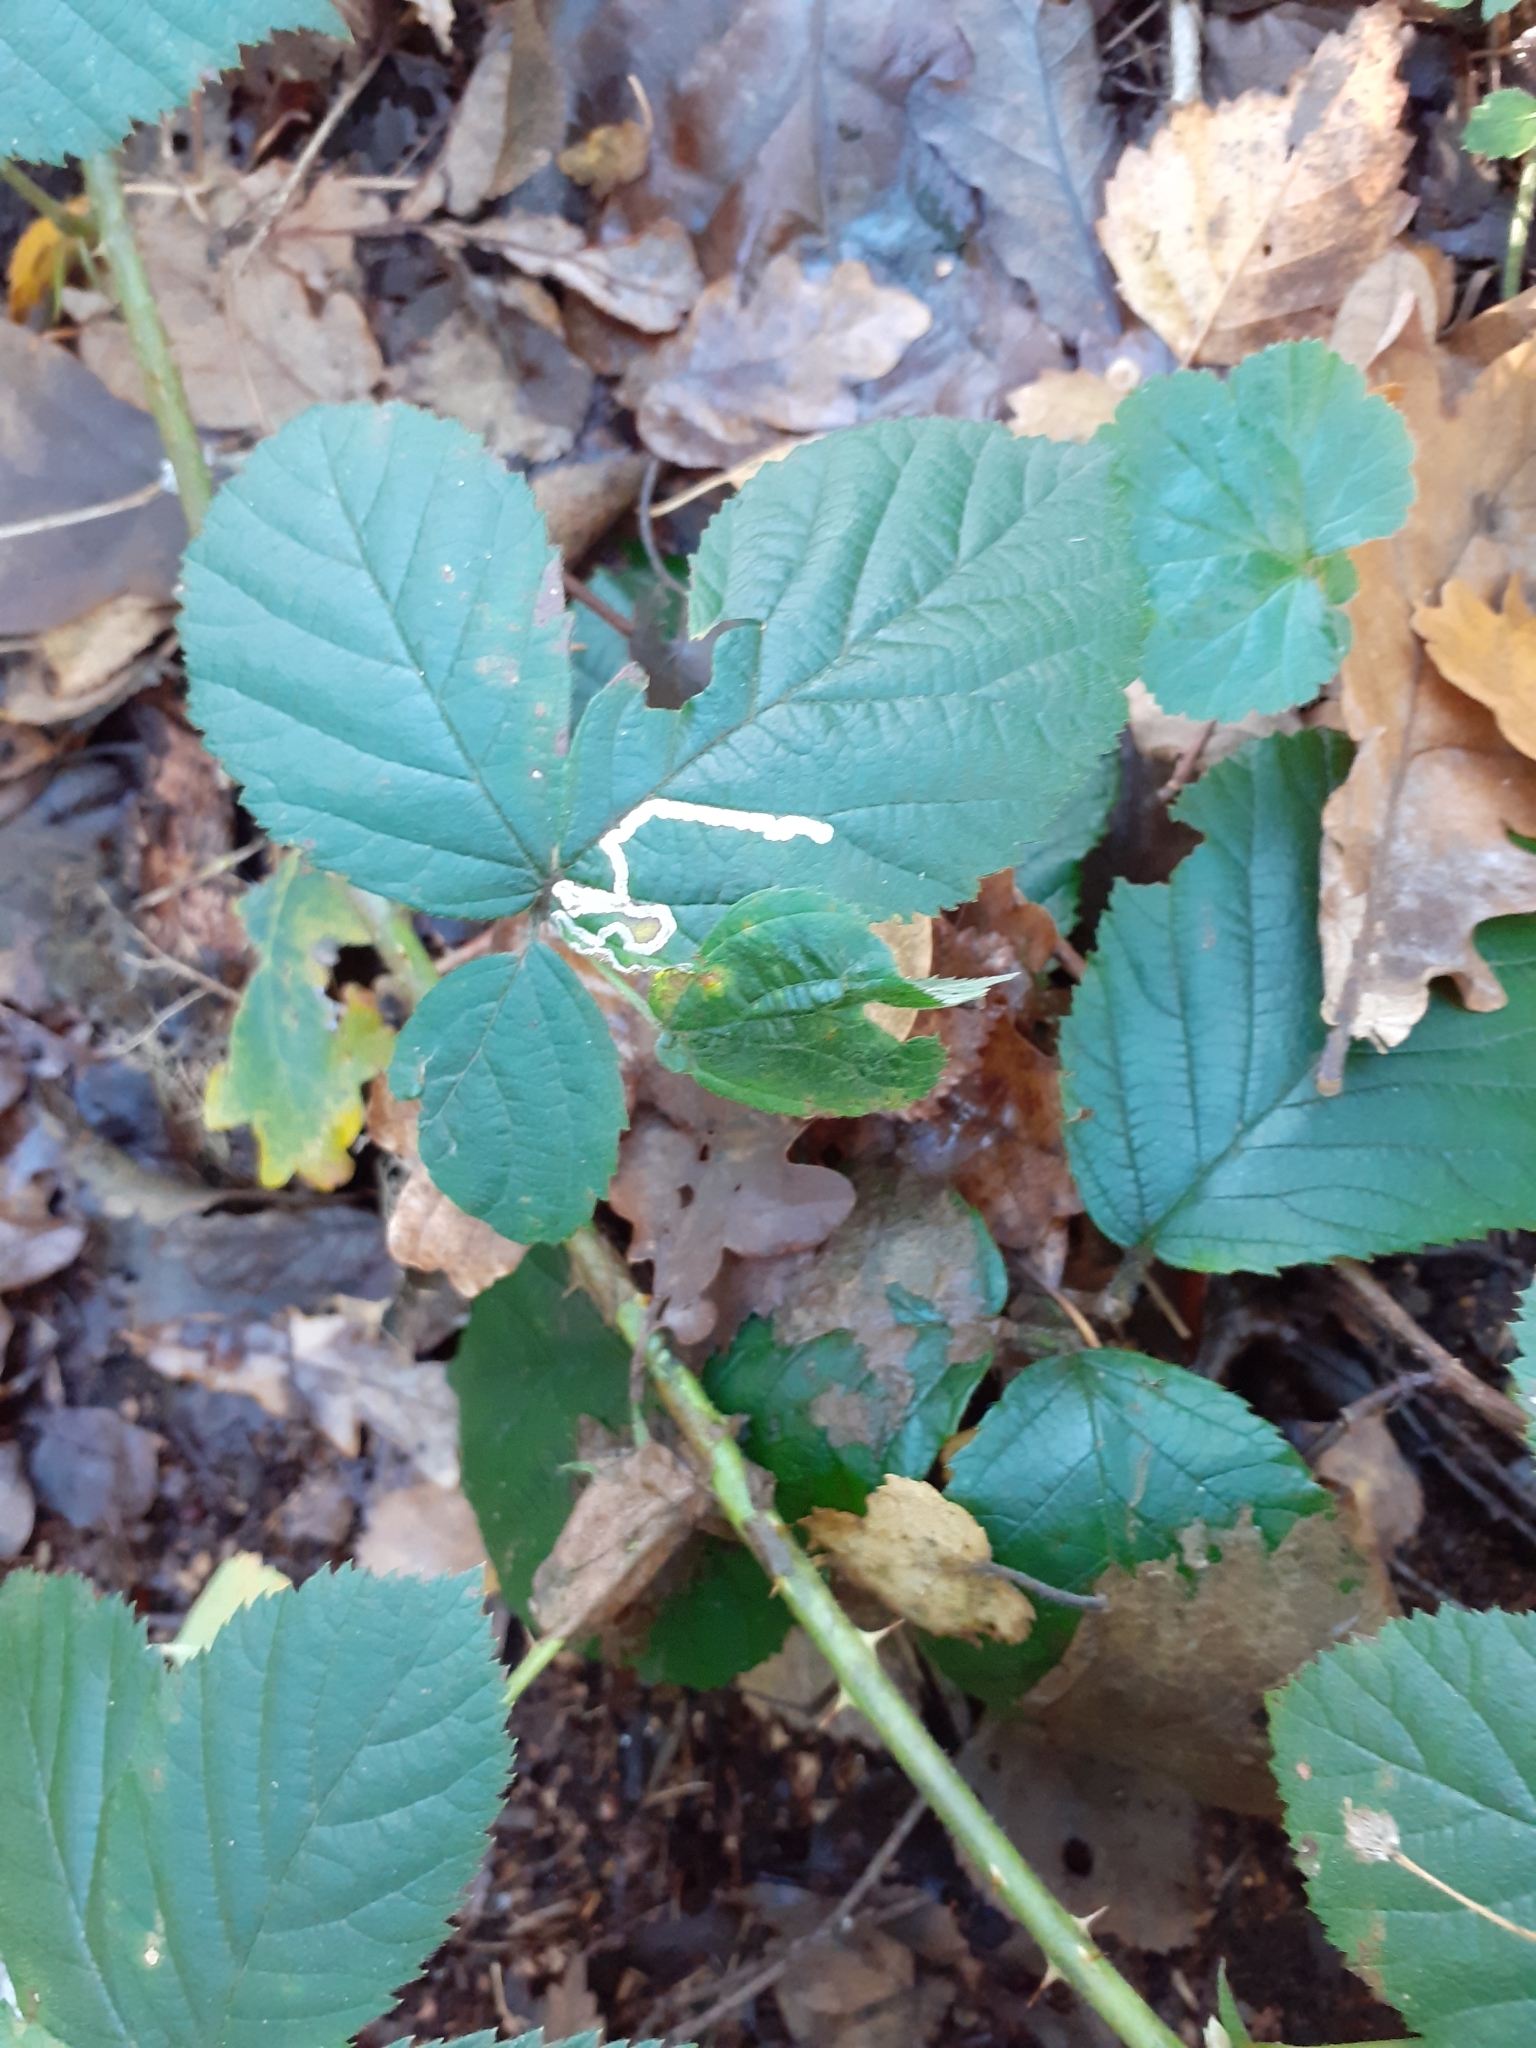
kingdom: Animalia
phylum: Arthropoda
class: Insecta
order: Lepidoptera
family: Nepticulidae
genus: Stigmella
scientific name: Stigmella aurella
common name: Golden pigmy
